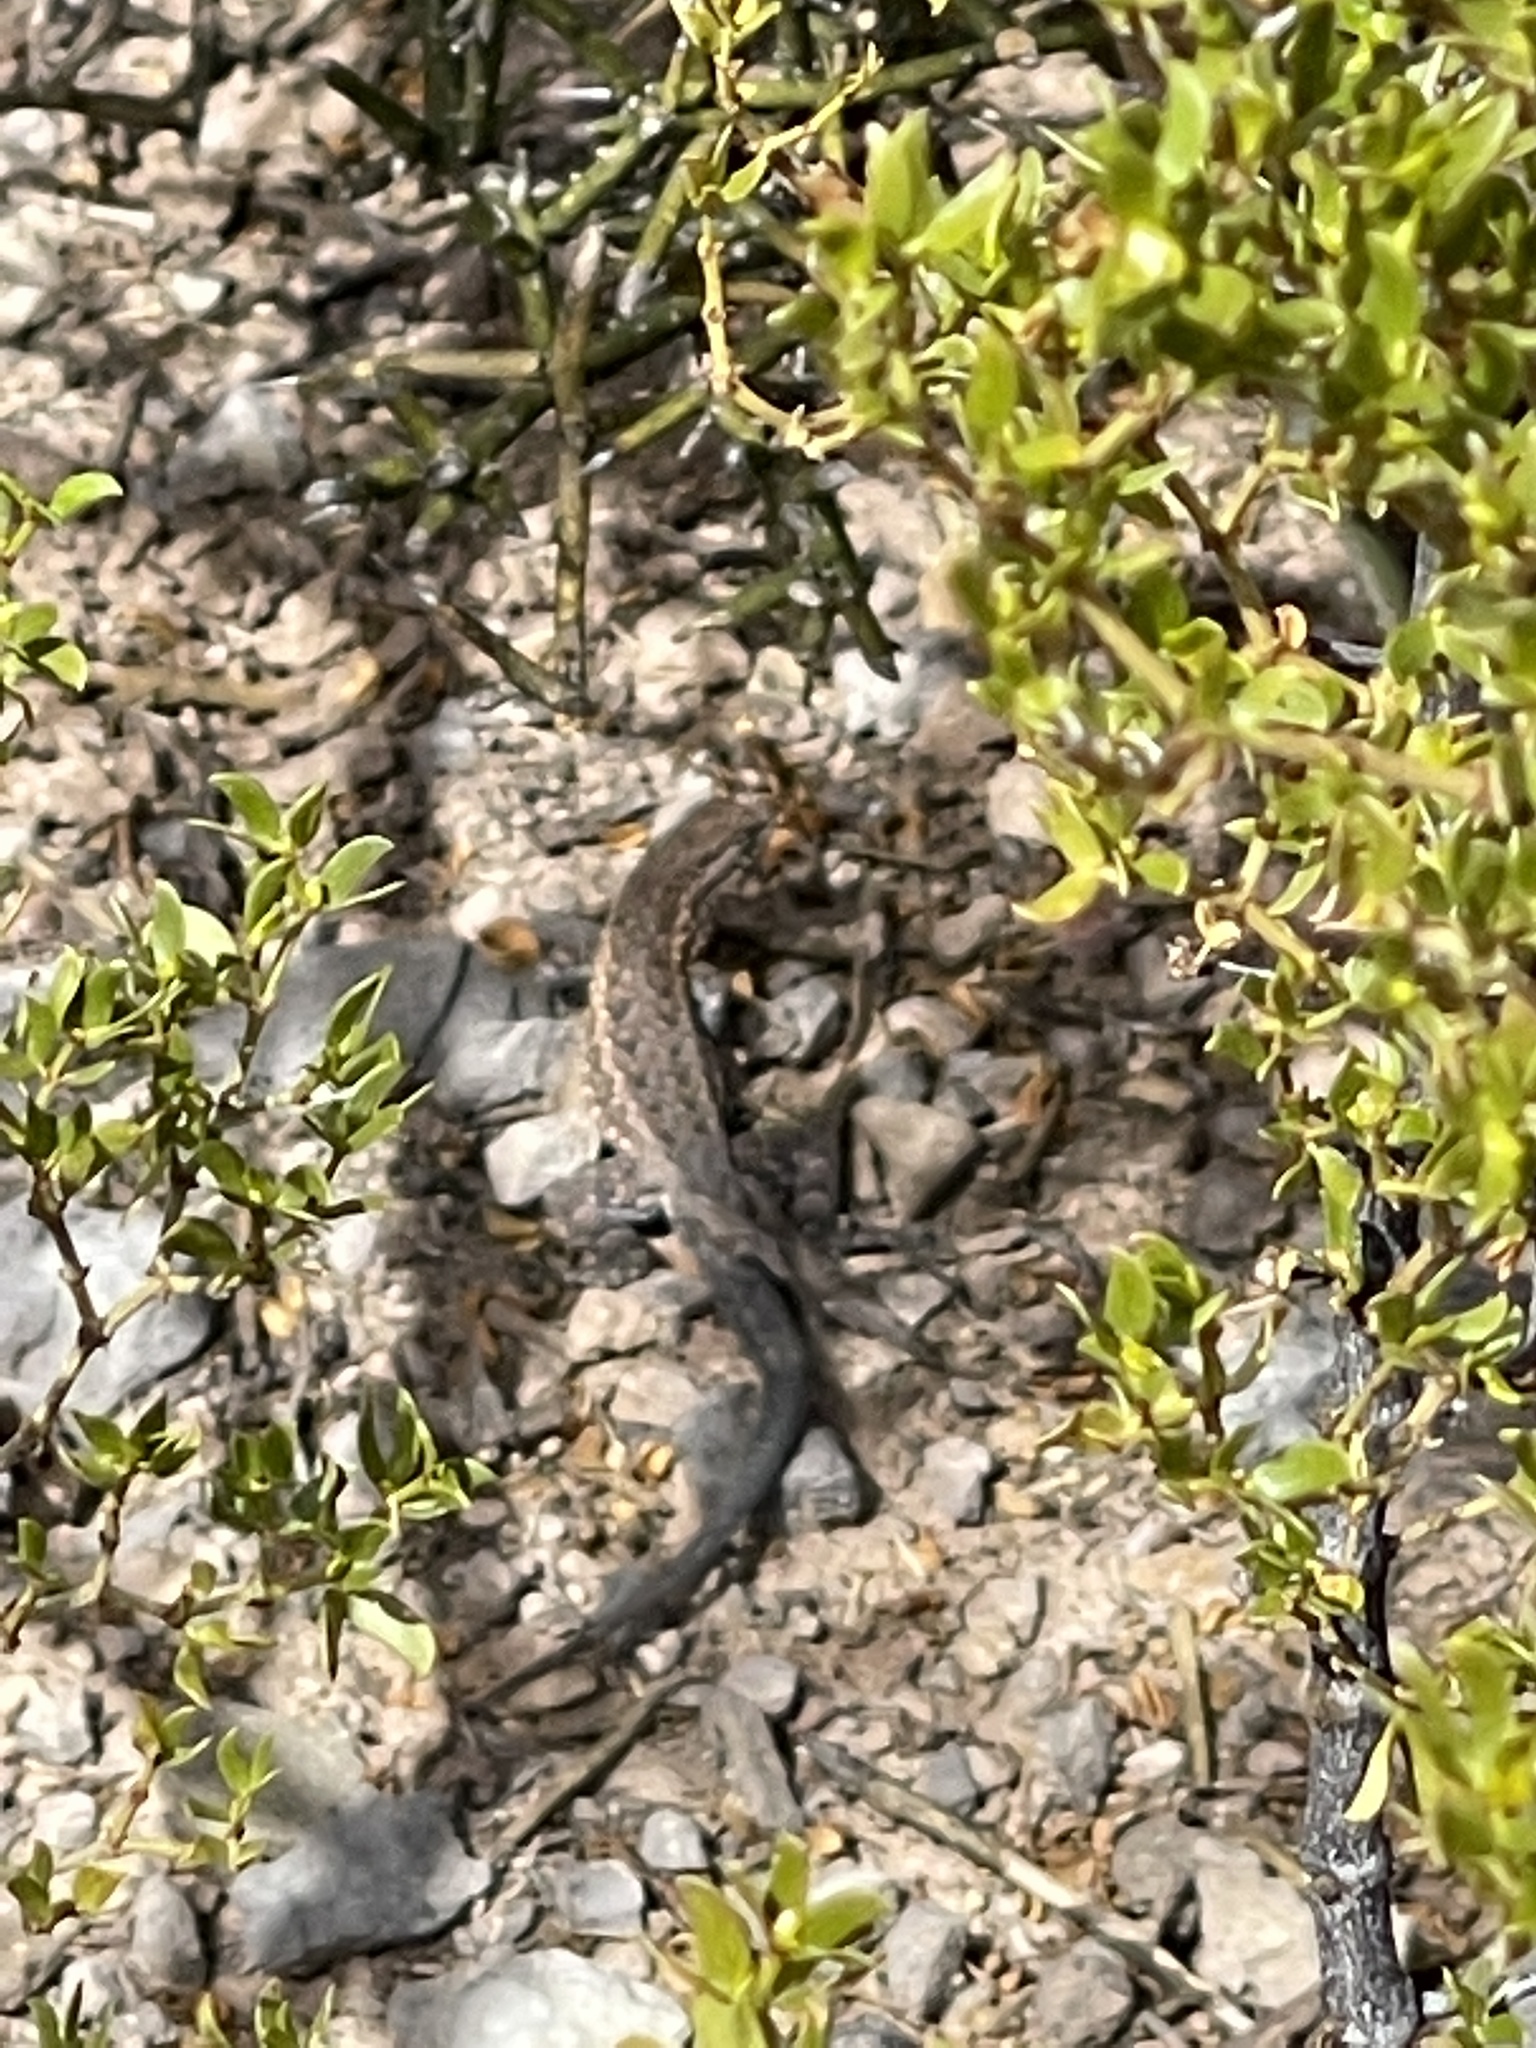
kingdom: Animalia
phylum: Chordata
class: Squamata
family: Phrynosomatidae
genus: Uta
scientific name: Uta stansburiana
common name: Side-blotched lizard
